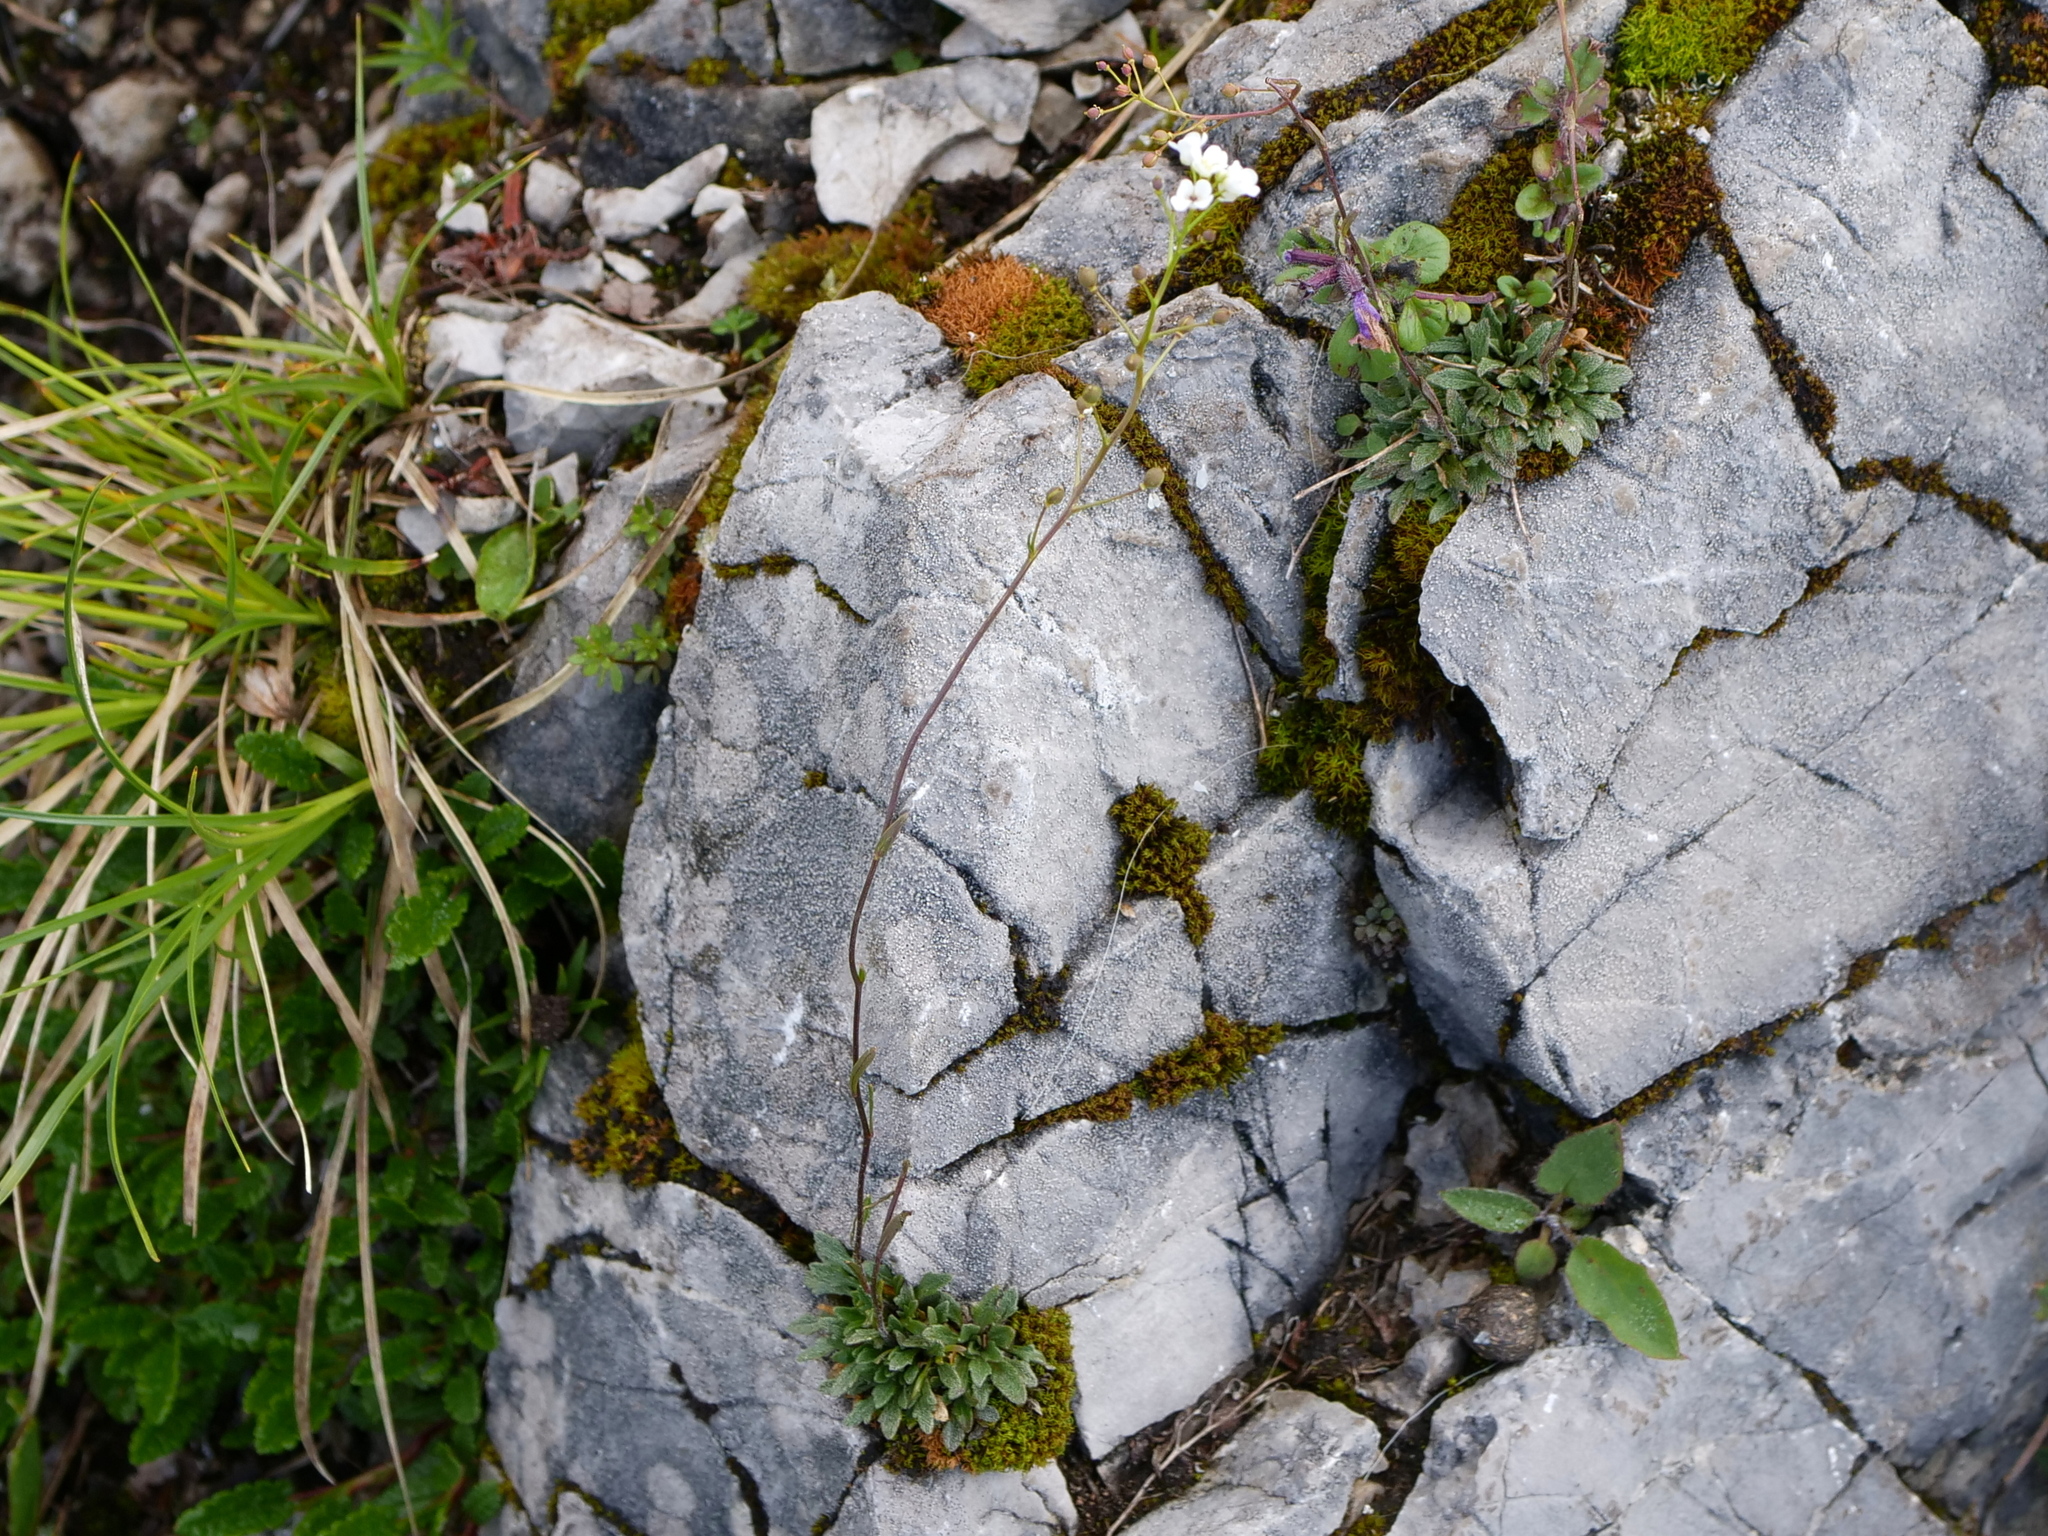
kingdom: Plantae
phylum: Tracheophyta
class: Magnoliopsida
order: Brassicales
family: Brassicaceae
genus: Kernera
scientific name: Kernera saxatilis
